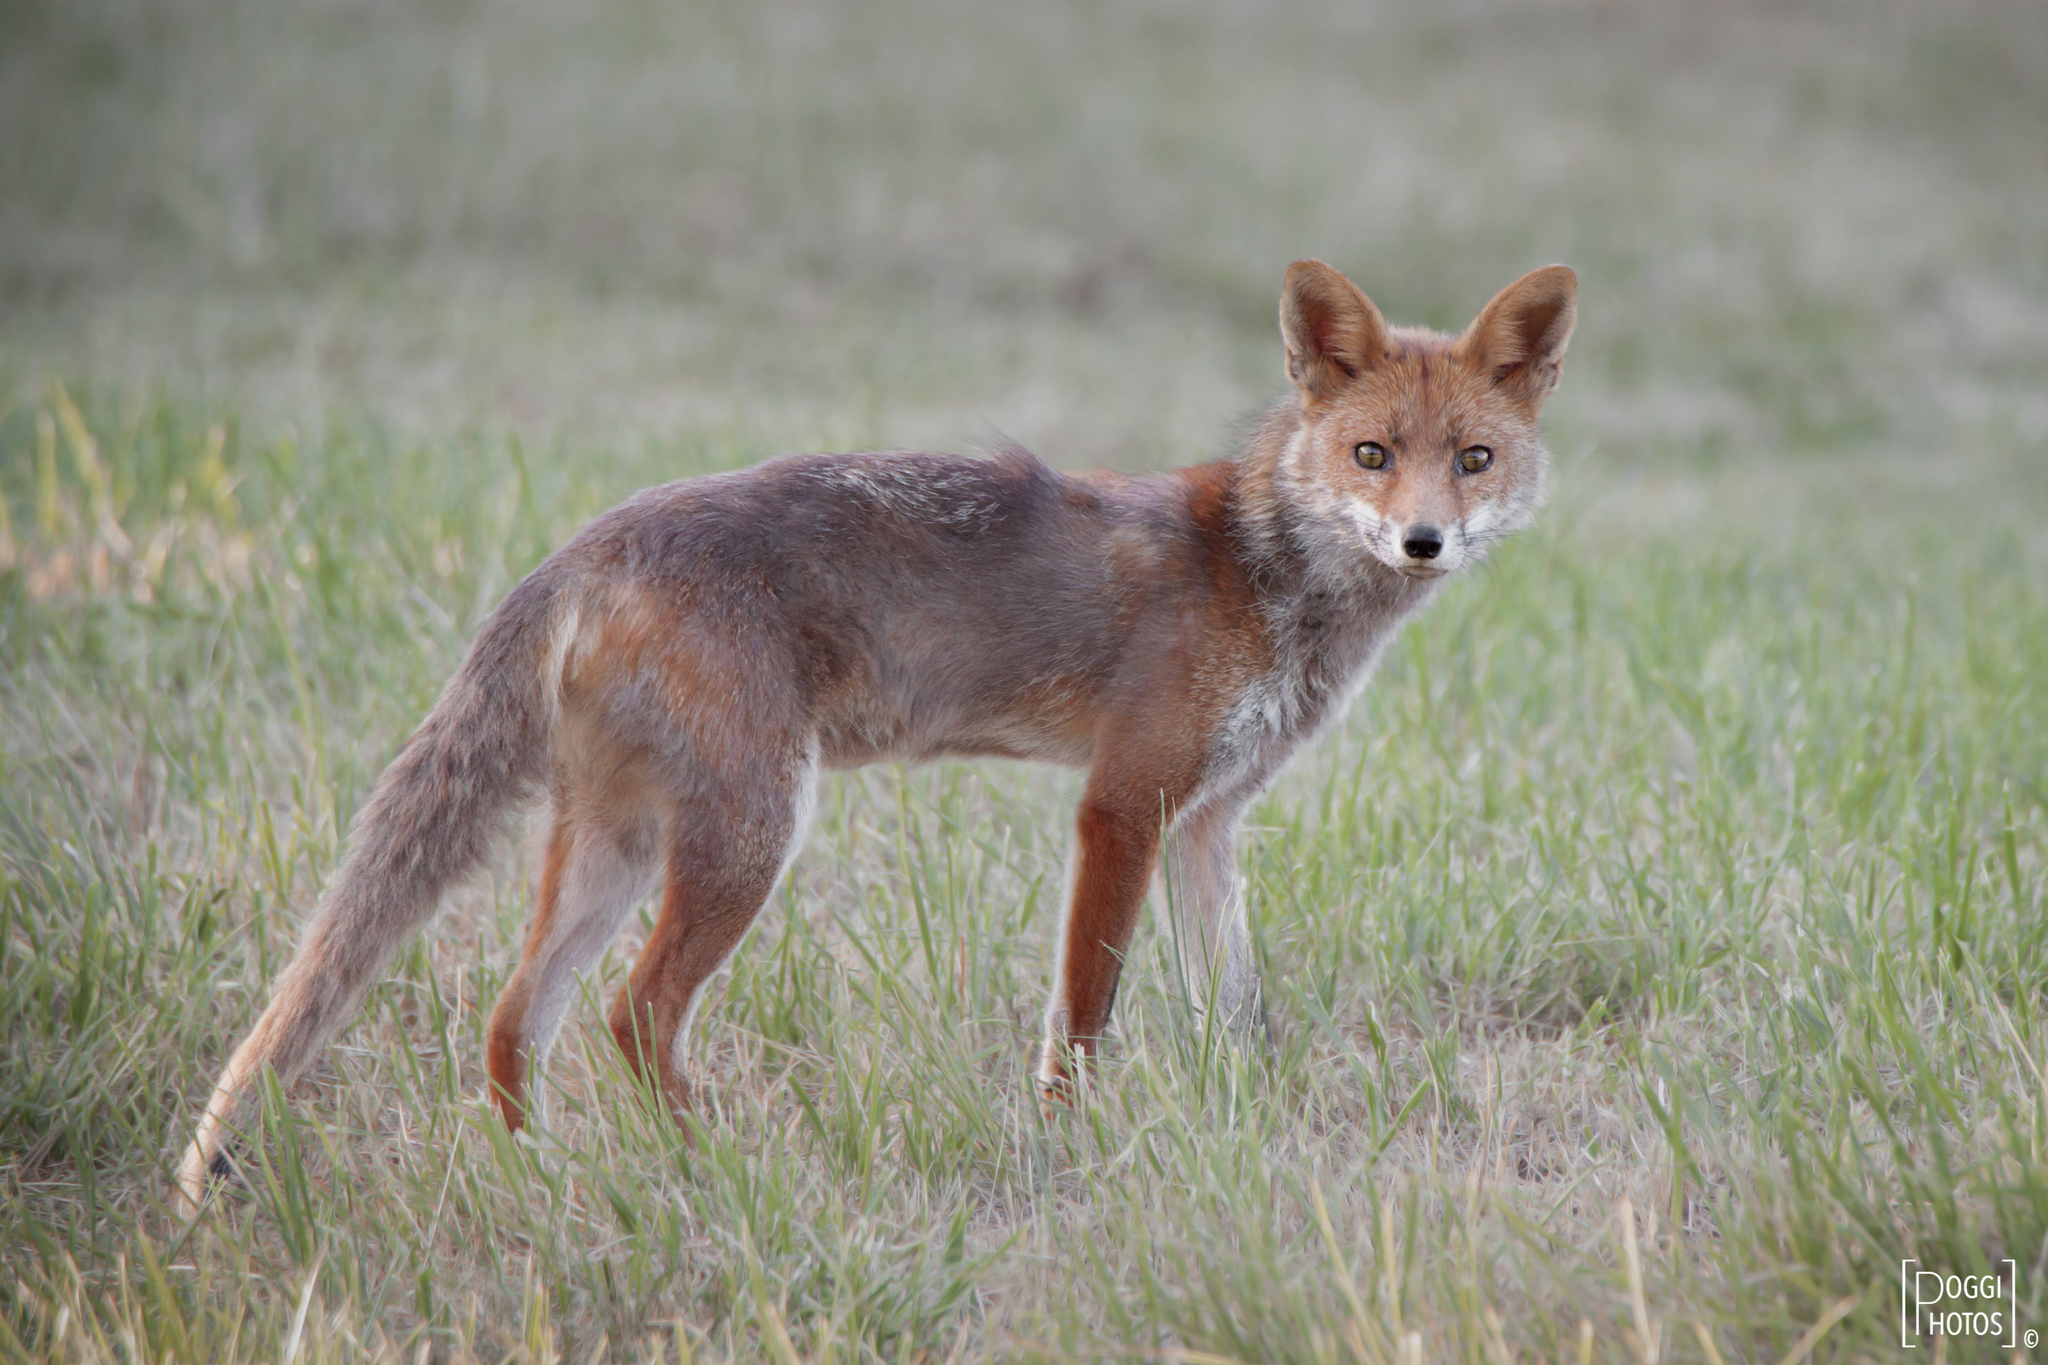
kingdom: Animalia
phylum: Chordata
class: Mammalia
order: Carnivora
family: Canidae
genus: Vulpes
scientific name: Vulpes vulpes
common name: Red fox
